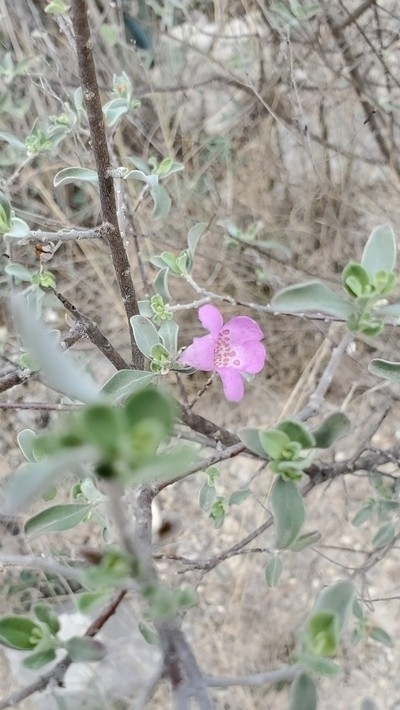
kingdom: Plantae
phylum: Tracheophyta
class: Magnoliopsida
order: Lamiales
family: Scrophulariaceae
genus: Leucophyllum
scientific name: Leucophyllum frutescens
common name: Texas silverleaf
